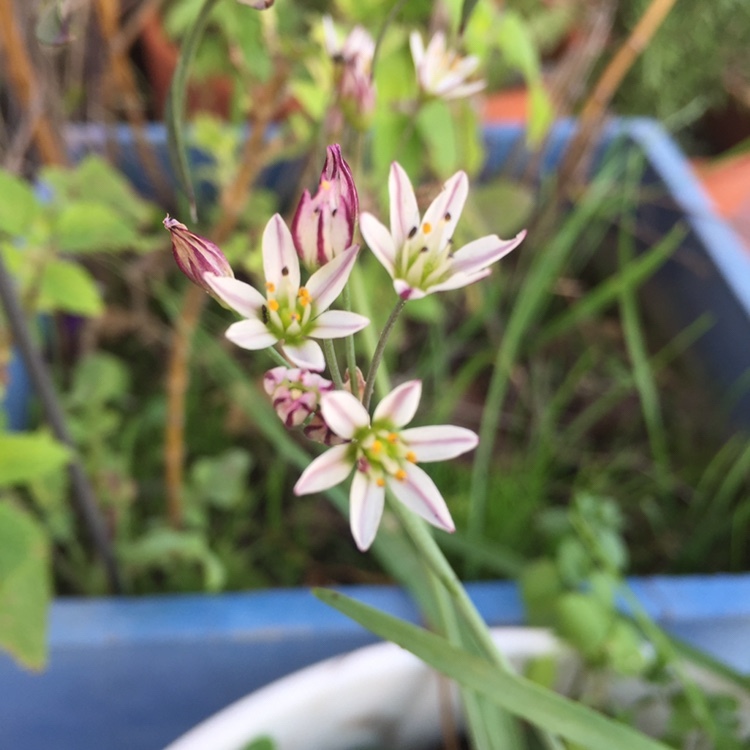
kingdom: Plantae
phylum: Tracheophyta
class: Liliopsida
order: Asparagales
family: Amaryllidaceae
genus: Nothoscordum
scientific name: Nothoscordum gracile
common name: Slender false garlic
